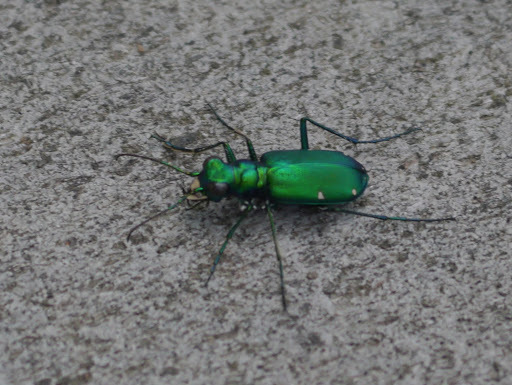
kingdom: Animalia
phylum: Arthropoda
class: Insecta
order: Coleoptera
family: Carabidae
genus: Cicindela
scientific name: Cicindela sexguttata
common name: Six-spotted tiger beetle
